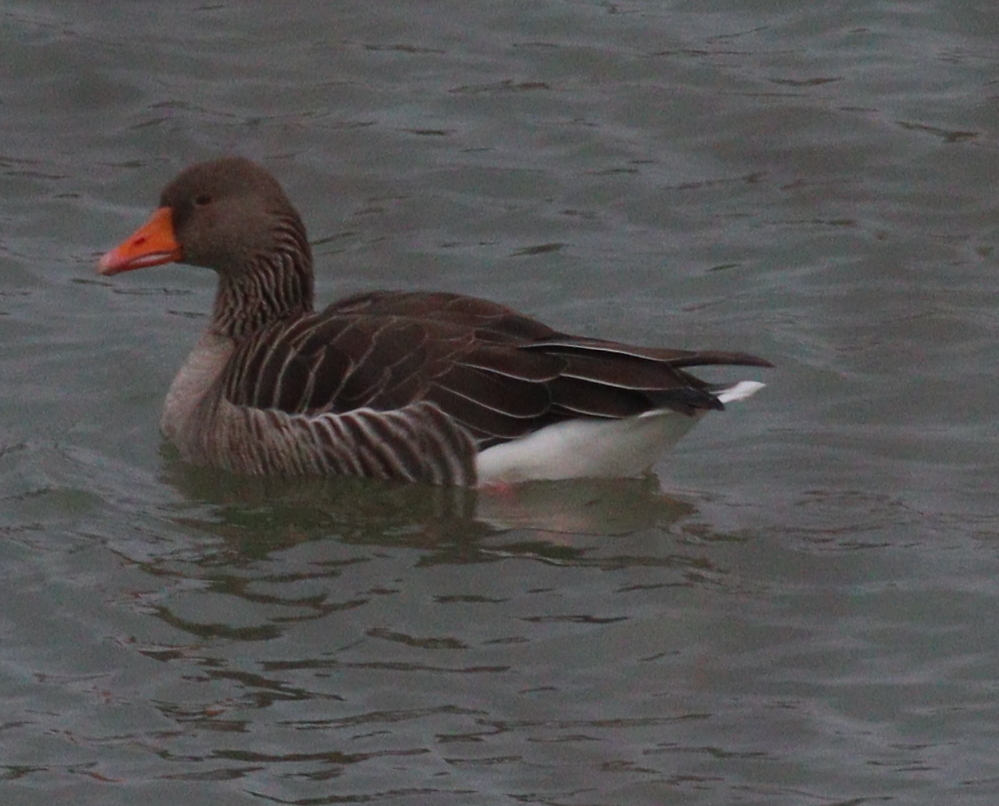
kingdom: Animalia
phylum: Chordata
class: Aves
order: Anseriformes
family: Anatidae
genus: Anser
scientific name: Anser anser
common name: Greylag goose
